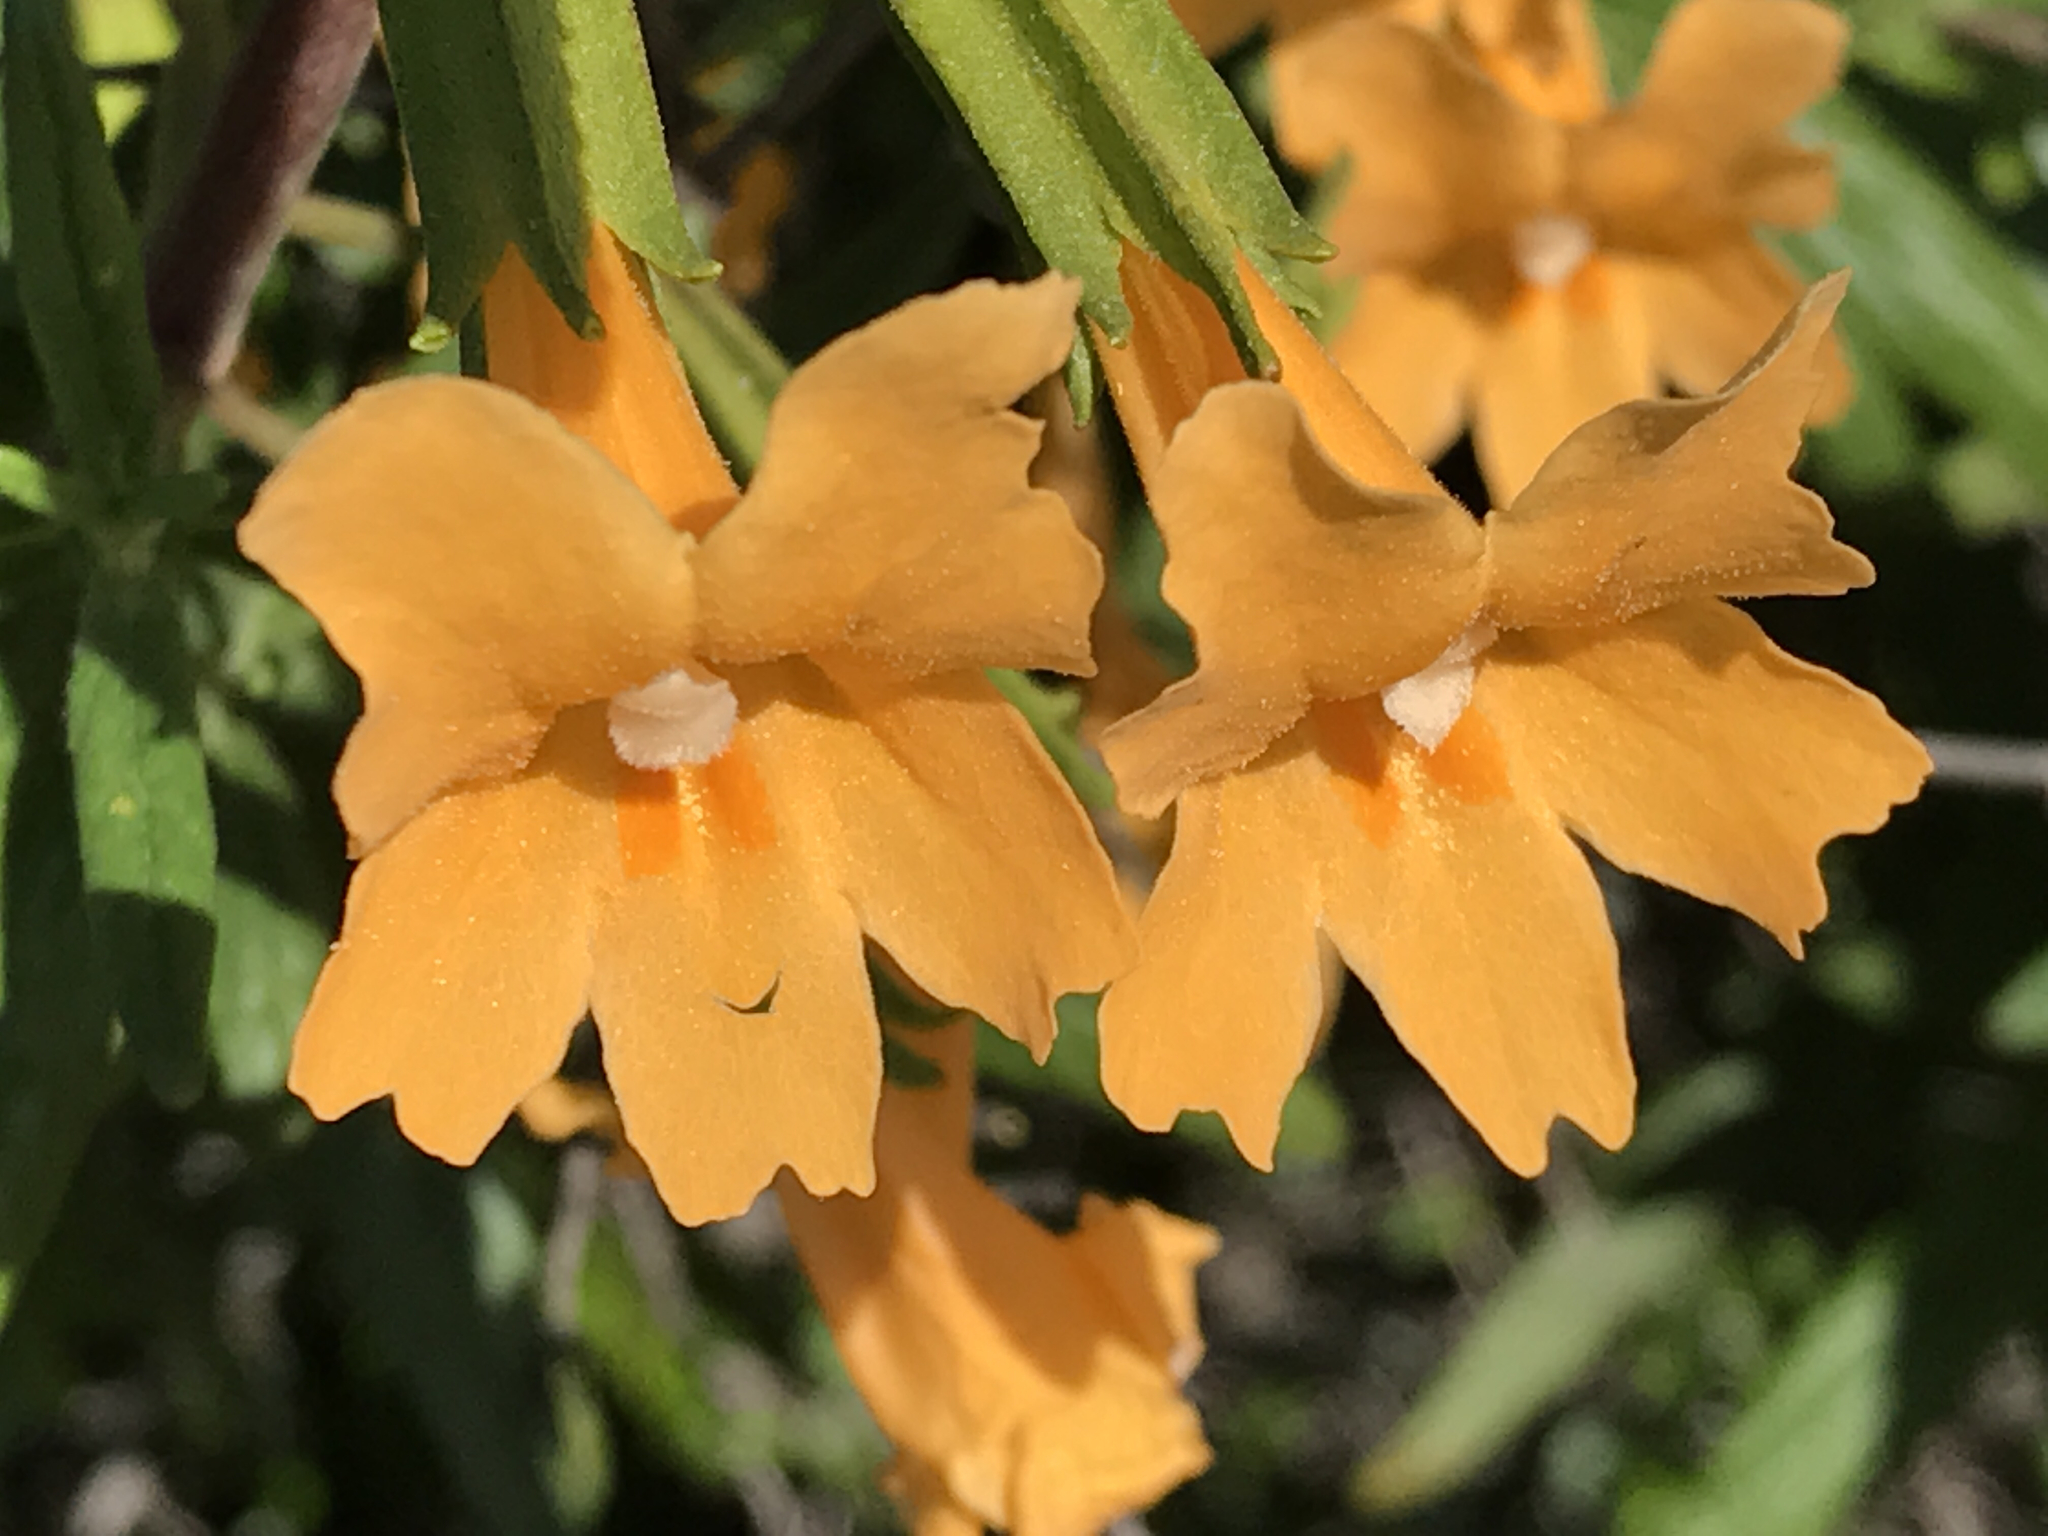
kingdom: Plantae
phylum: Tracheophyta
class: Magnoliopsida
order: Lamiales
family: Phrymaceae
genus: Diplacus
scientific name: Diplacus aurantiacus
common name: Bush monkey-flower
